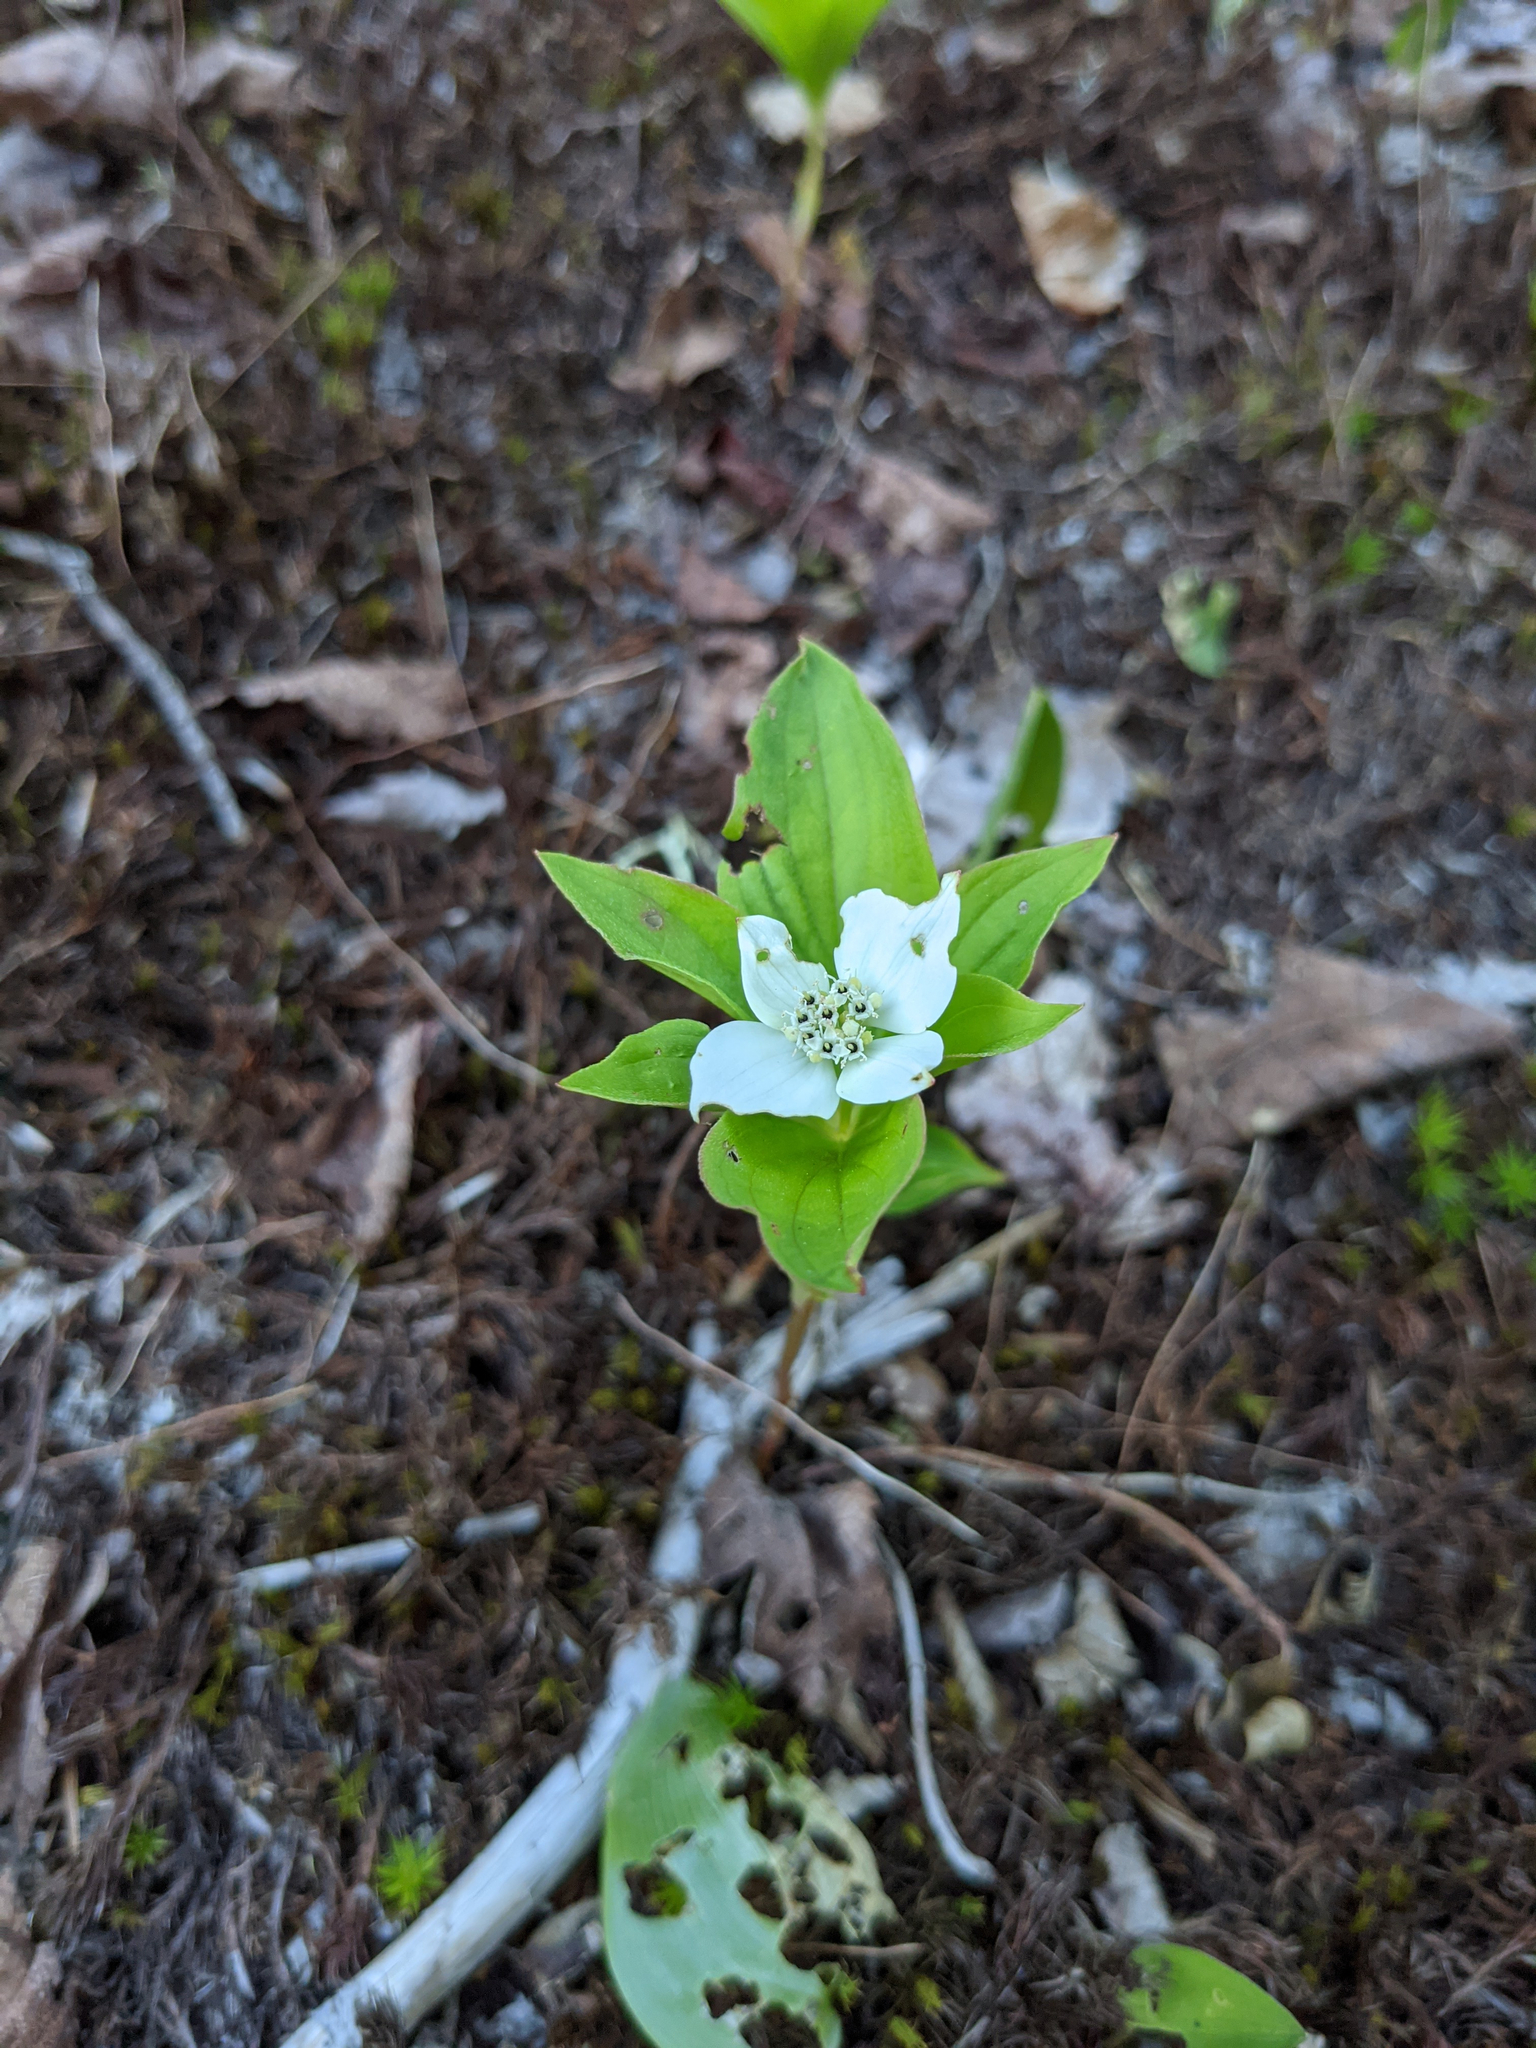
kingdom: Plantae
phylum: Tracheophyta
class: Magnoliopsida
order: Cornales
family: Cornaceae
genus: Cornus
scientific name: Cornus canadensis
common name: Creeping dogwood
